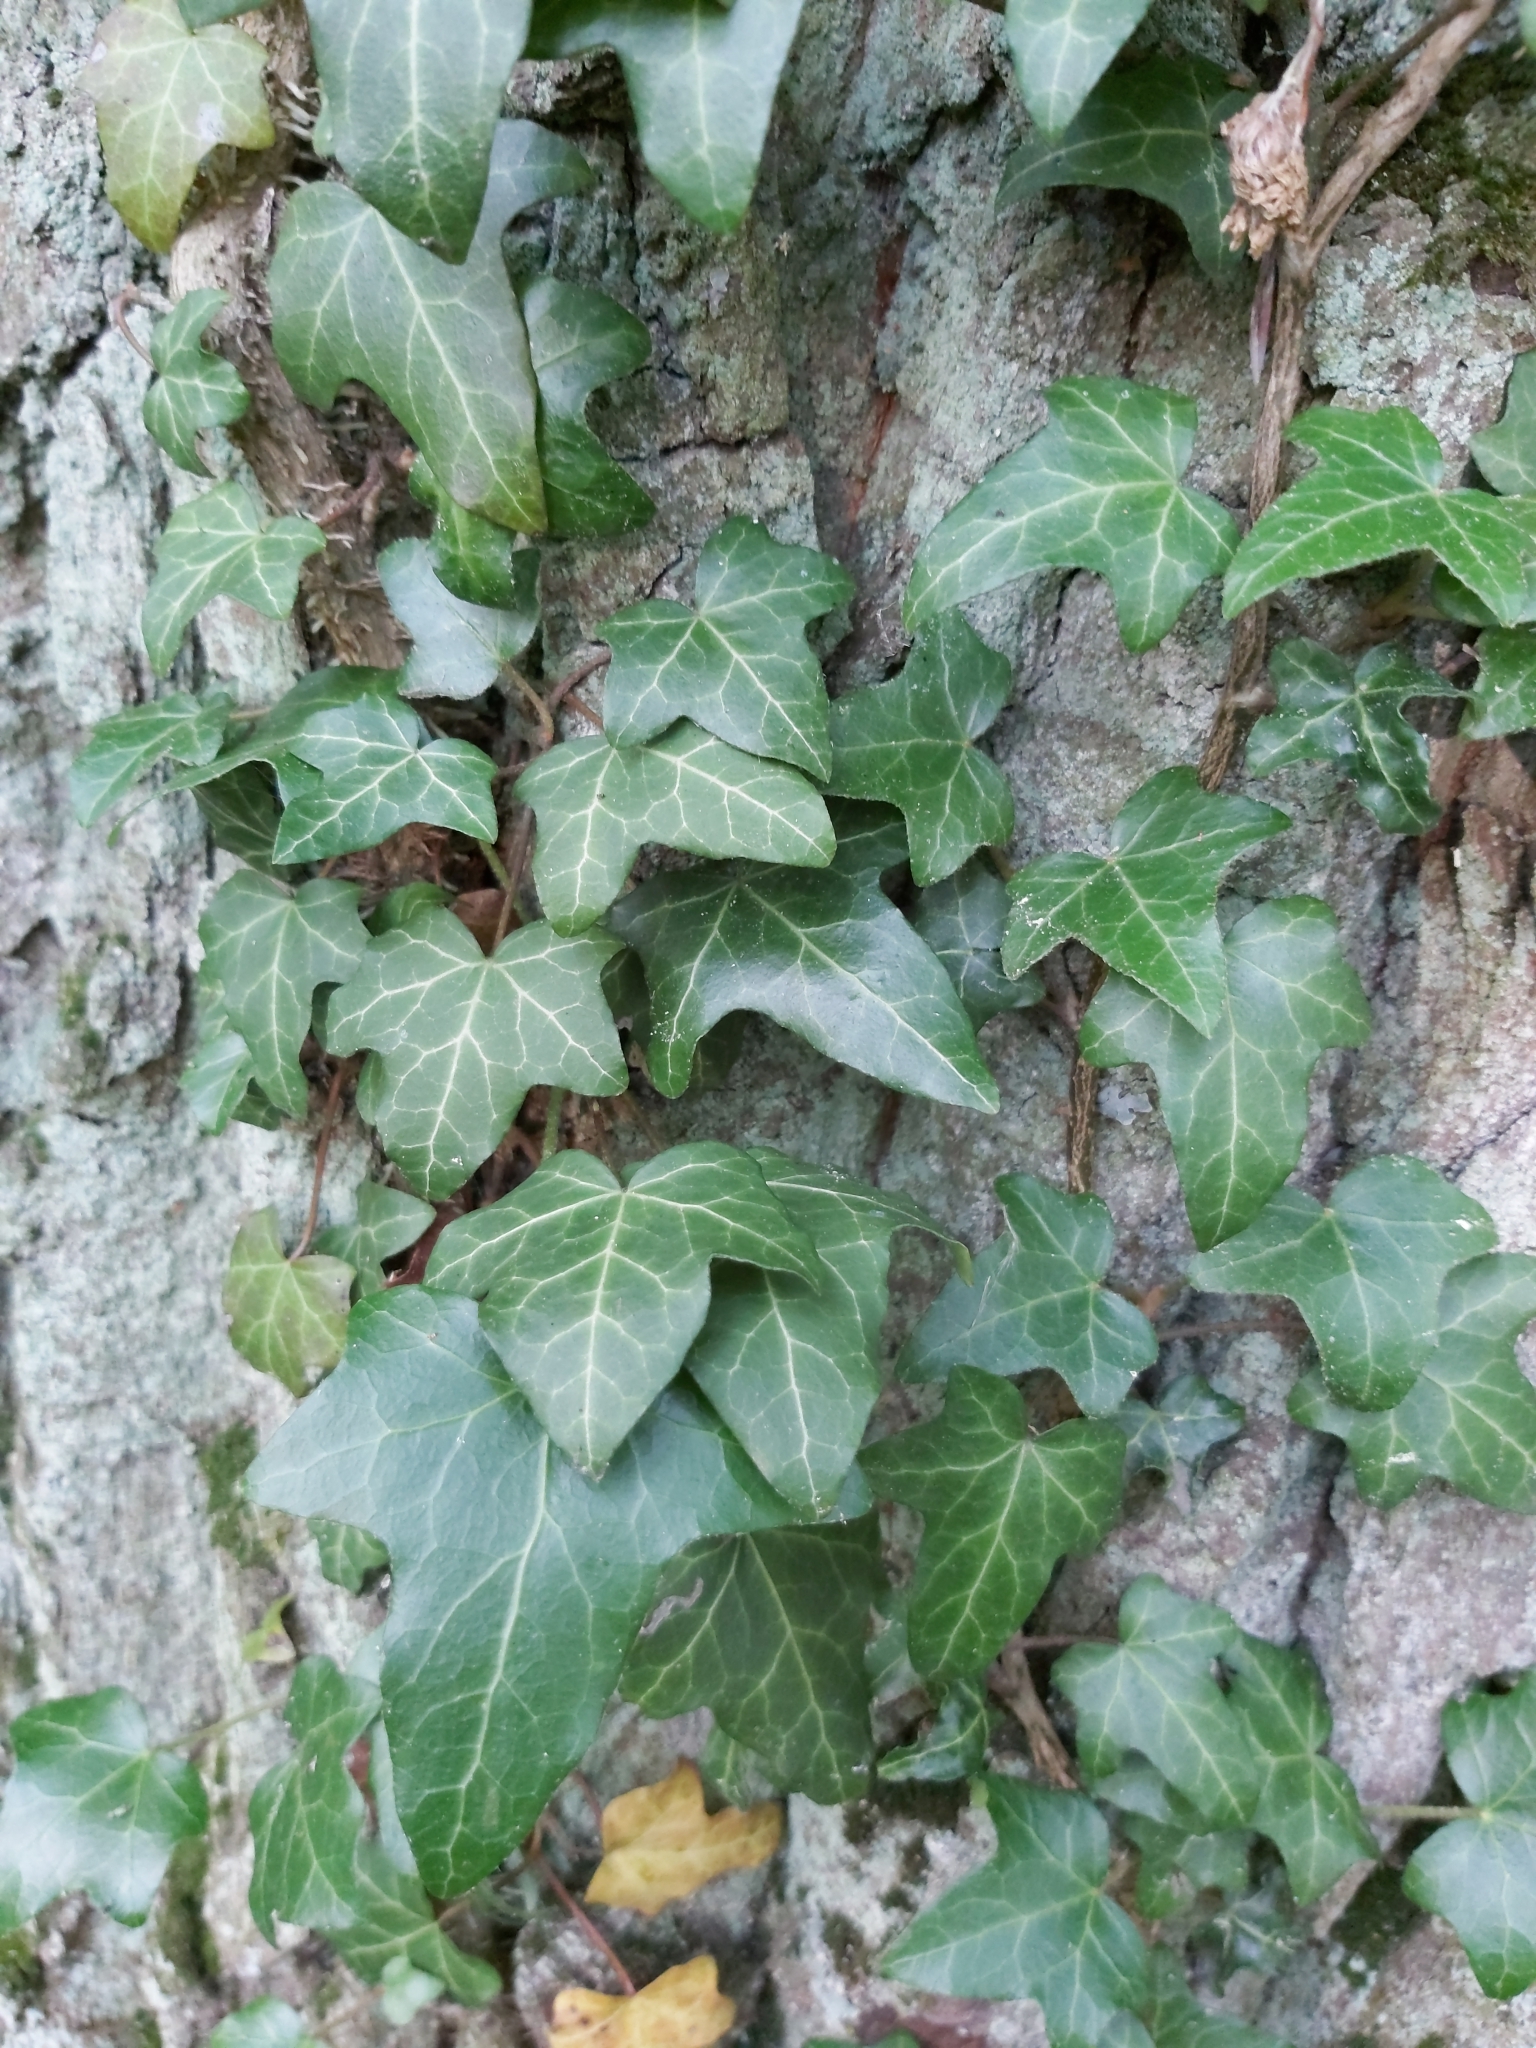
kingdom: Plantae
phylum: Tracheophyta
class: Magnoliopsida
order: Apiales
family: Araliaceae
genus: Hedera
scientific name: Hedera helix
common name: Ivy
